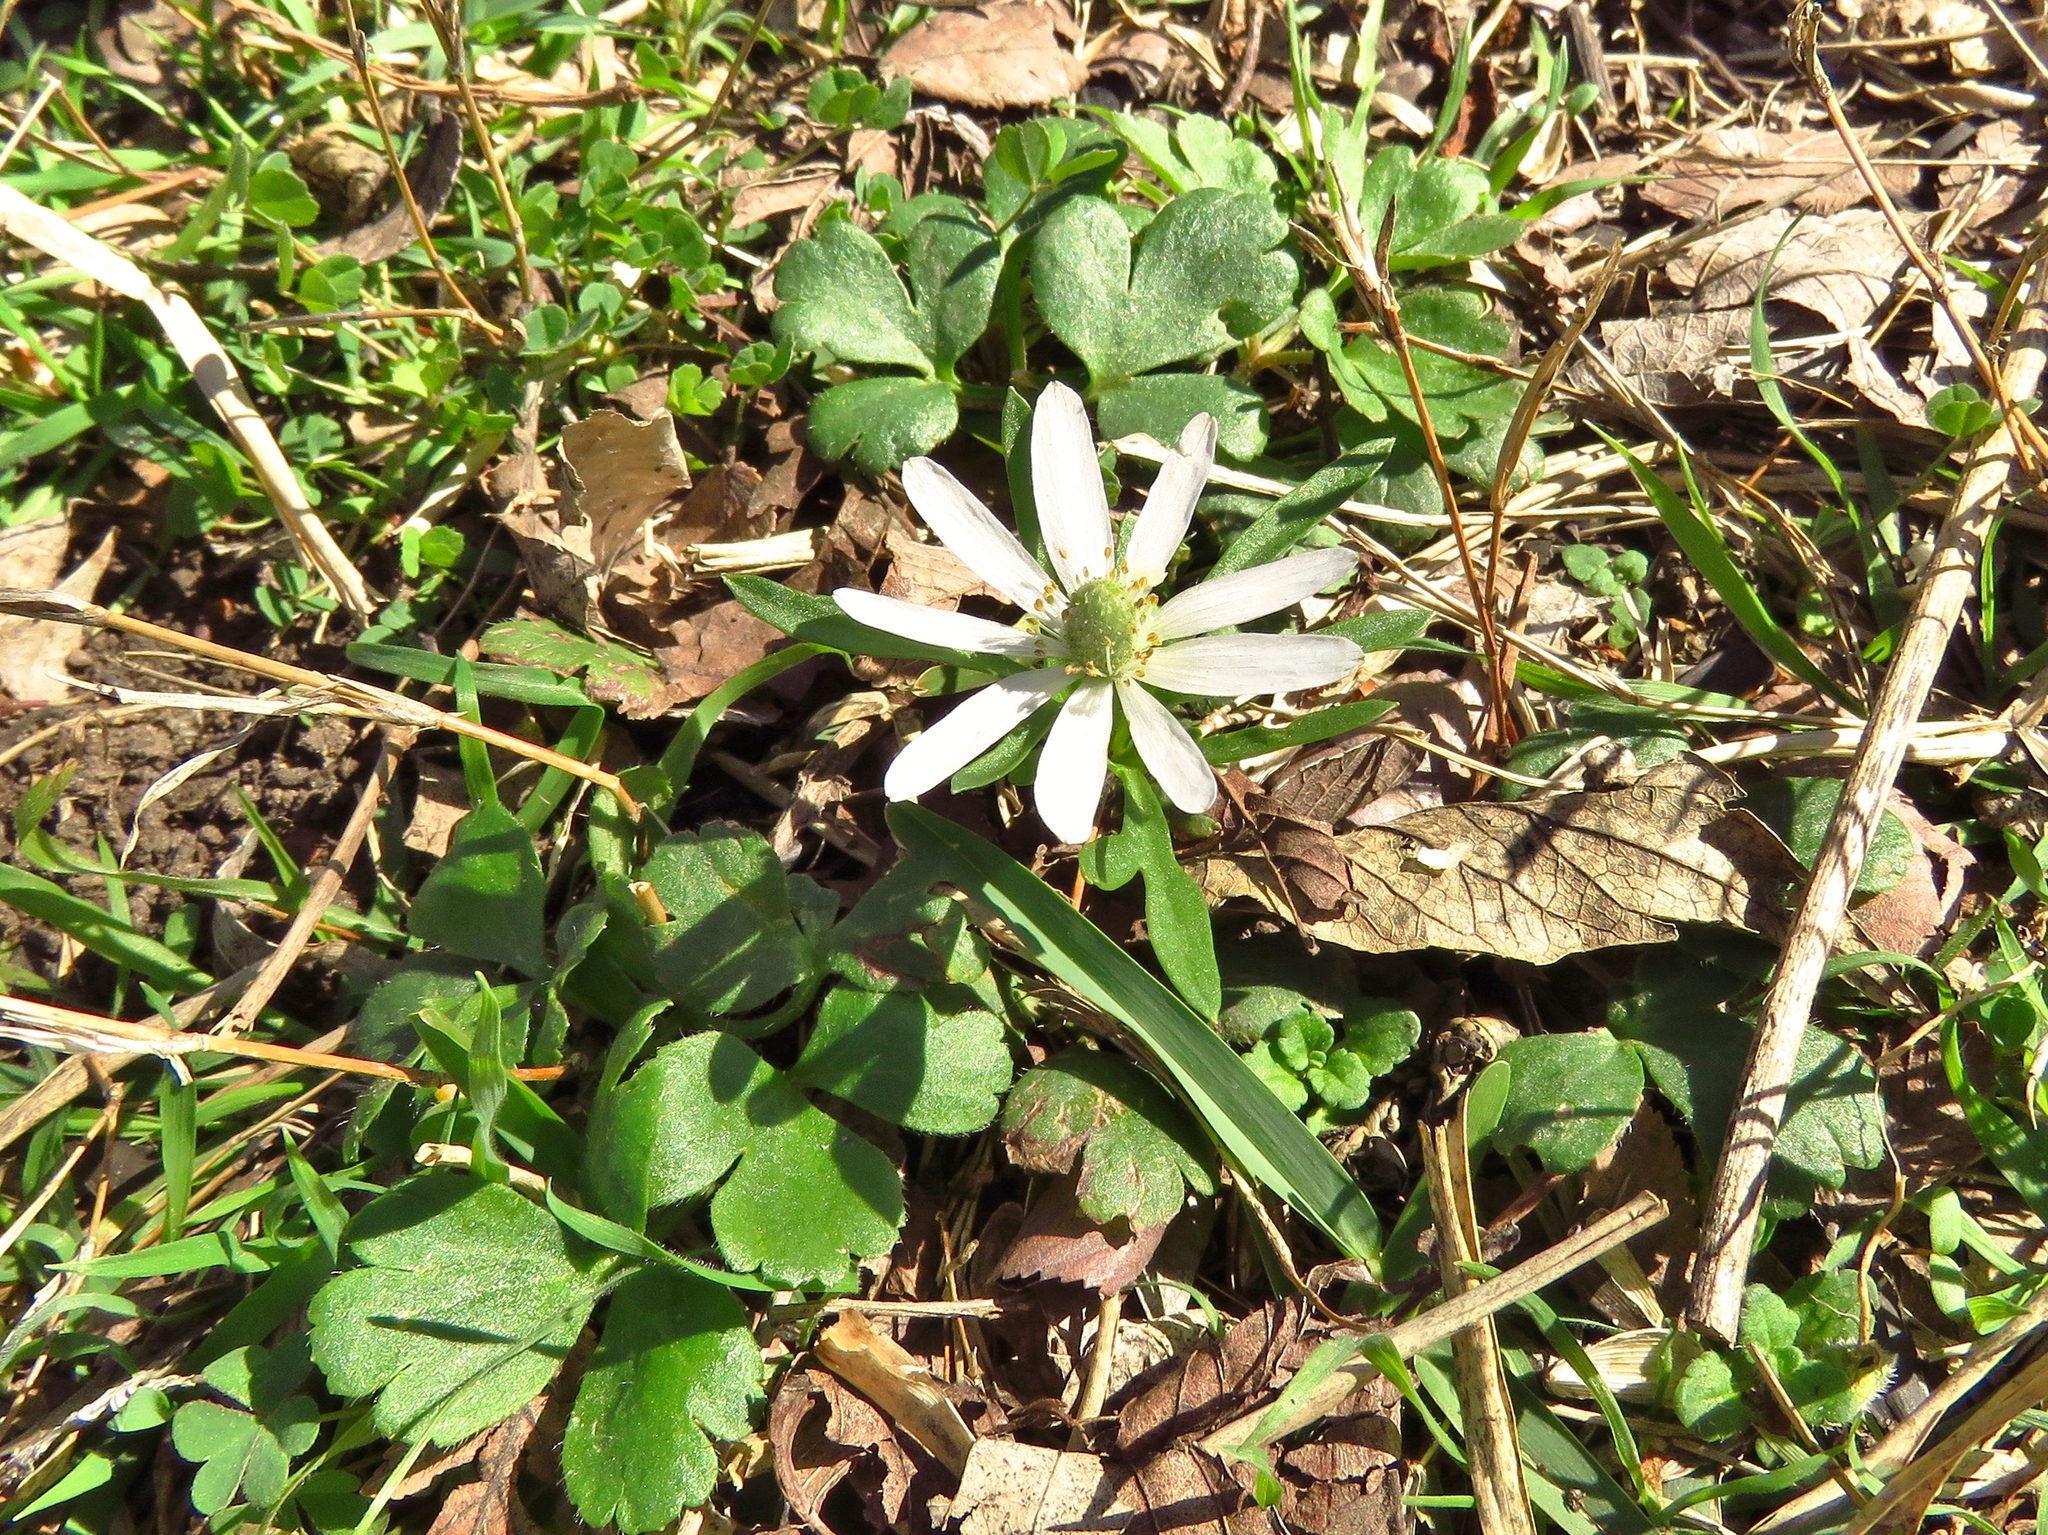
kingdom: Plantae
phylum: Tracheophyta
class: Magnoliopsida
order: Ranunculales
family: Ranunculaceae
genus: Anemone
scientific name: Anemone berlandieri
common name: Ten-petal anemone
